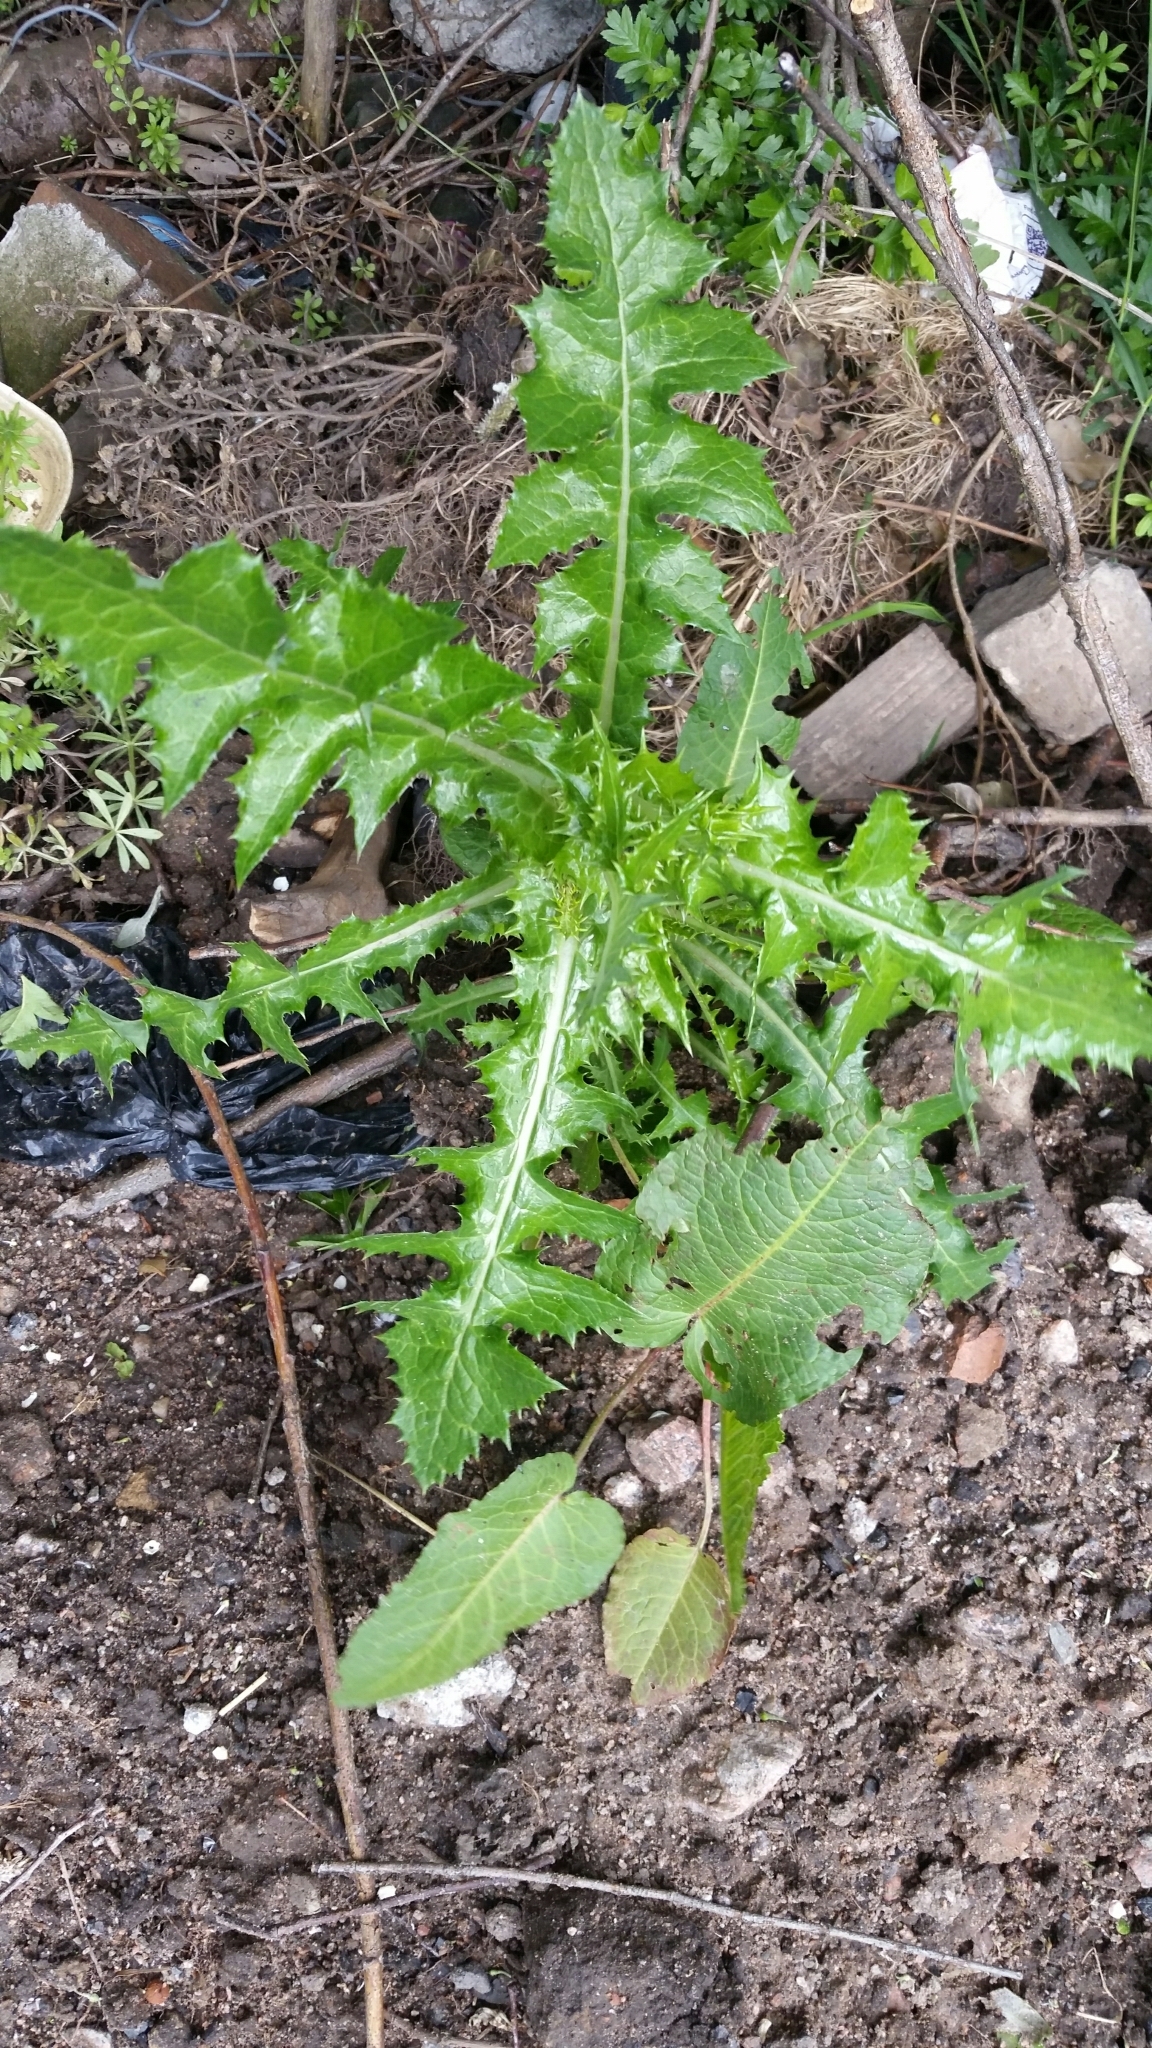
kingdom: Plantae
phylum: Tracheophyta
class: Magnoliopsida
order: Asterales
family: Asteraceae
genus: Sonchus
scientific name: Sonchus asper
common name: Prickly sow-thistle
